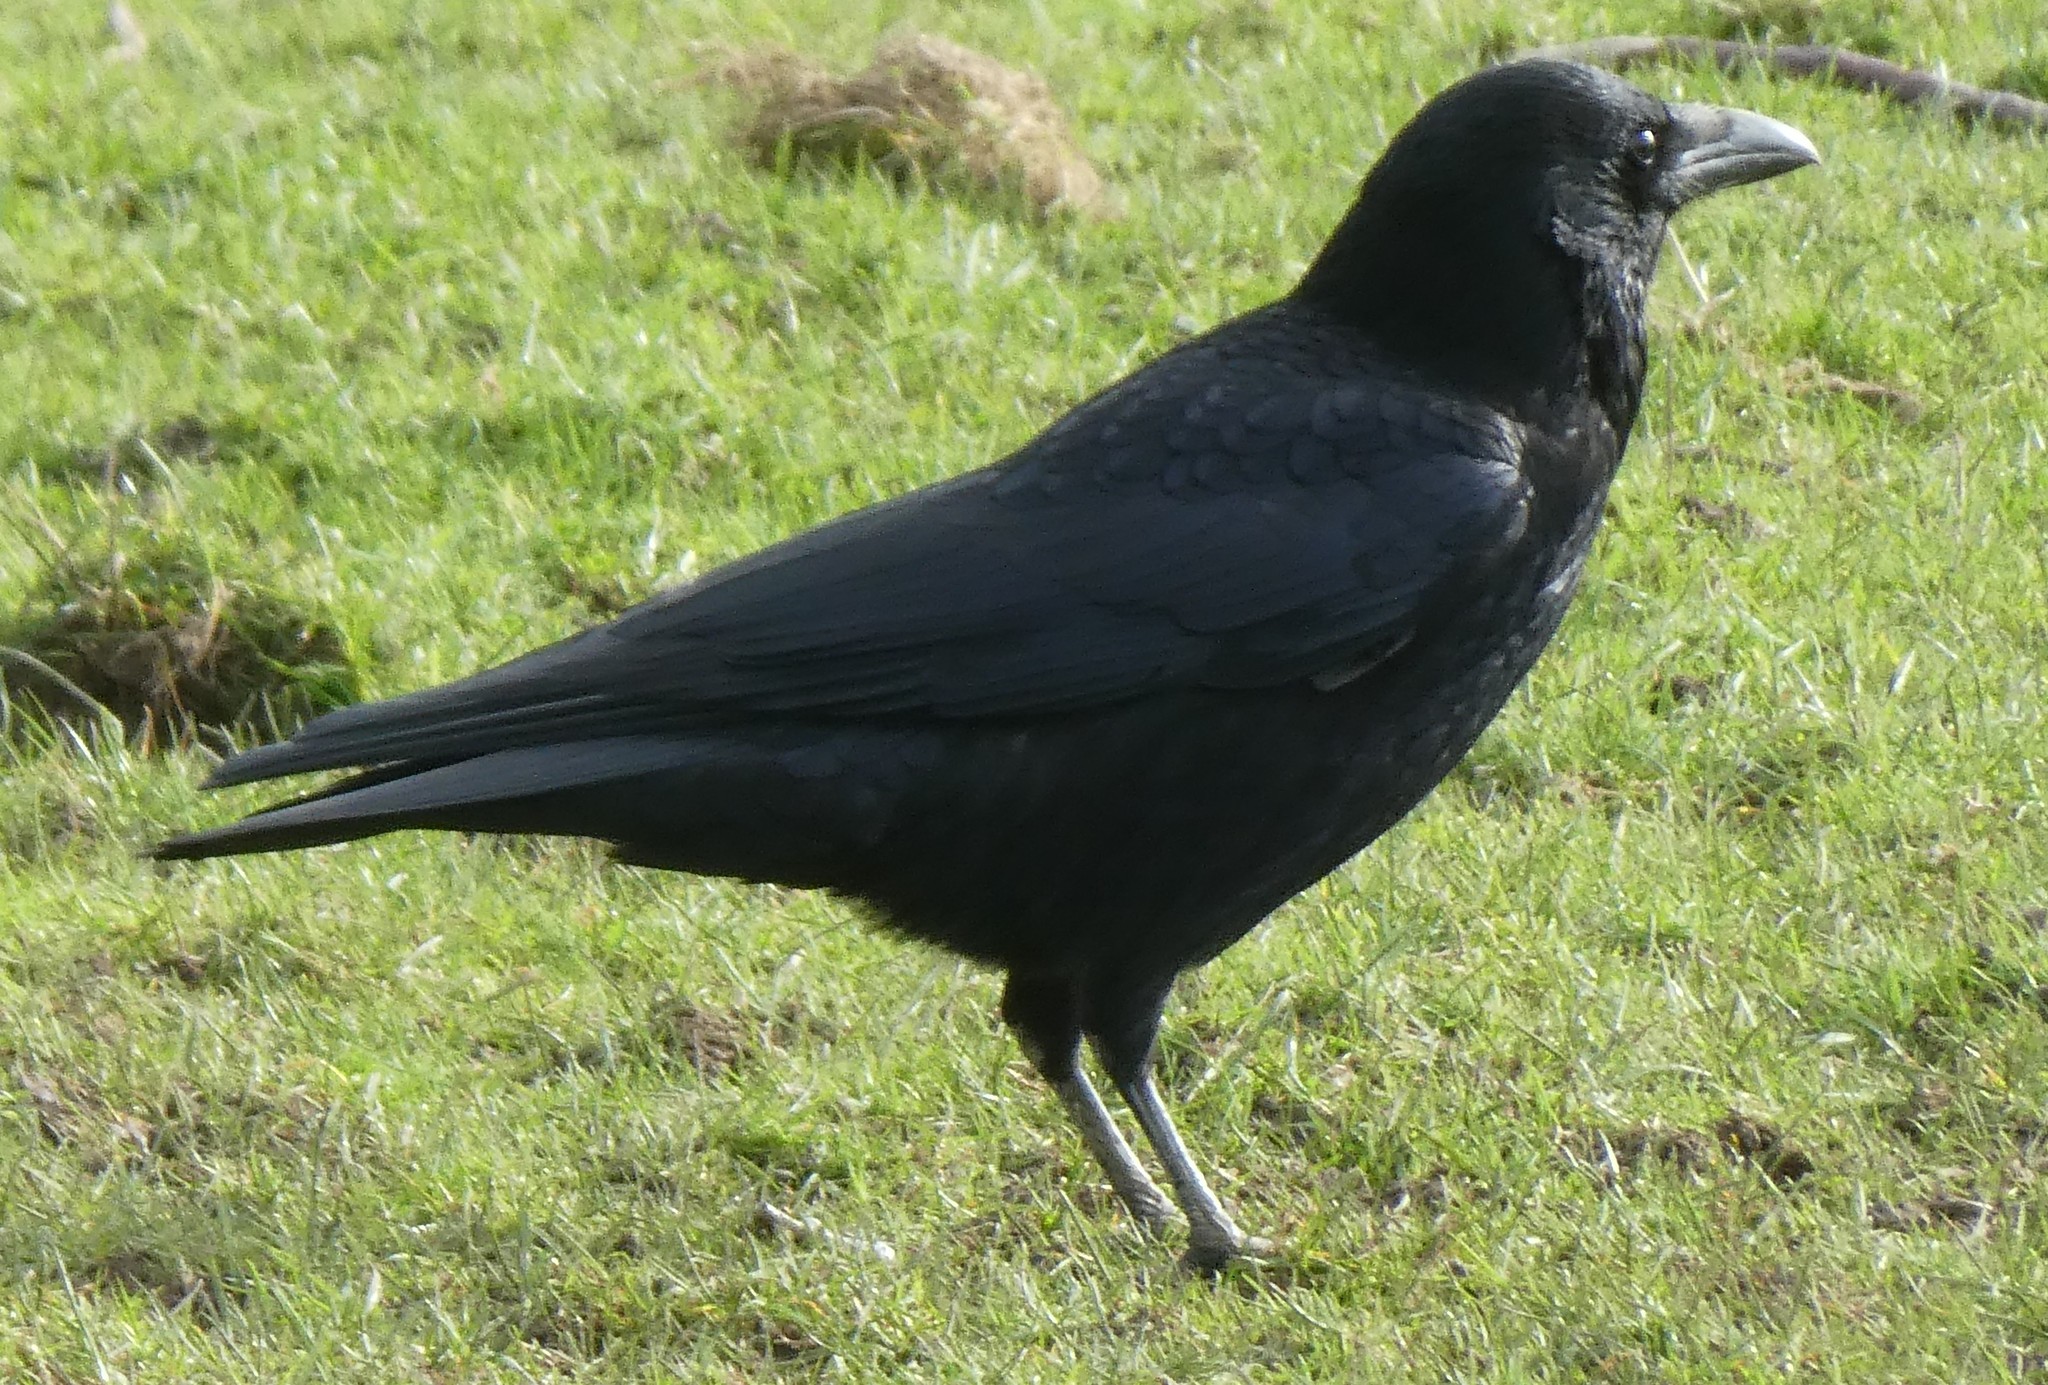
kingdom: Animalia
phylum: Chordata
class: Aves
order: Passeriformes
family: Corvidae
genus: Corvus
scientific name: Corvus corone
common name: Carrion crow
